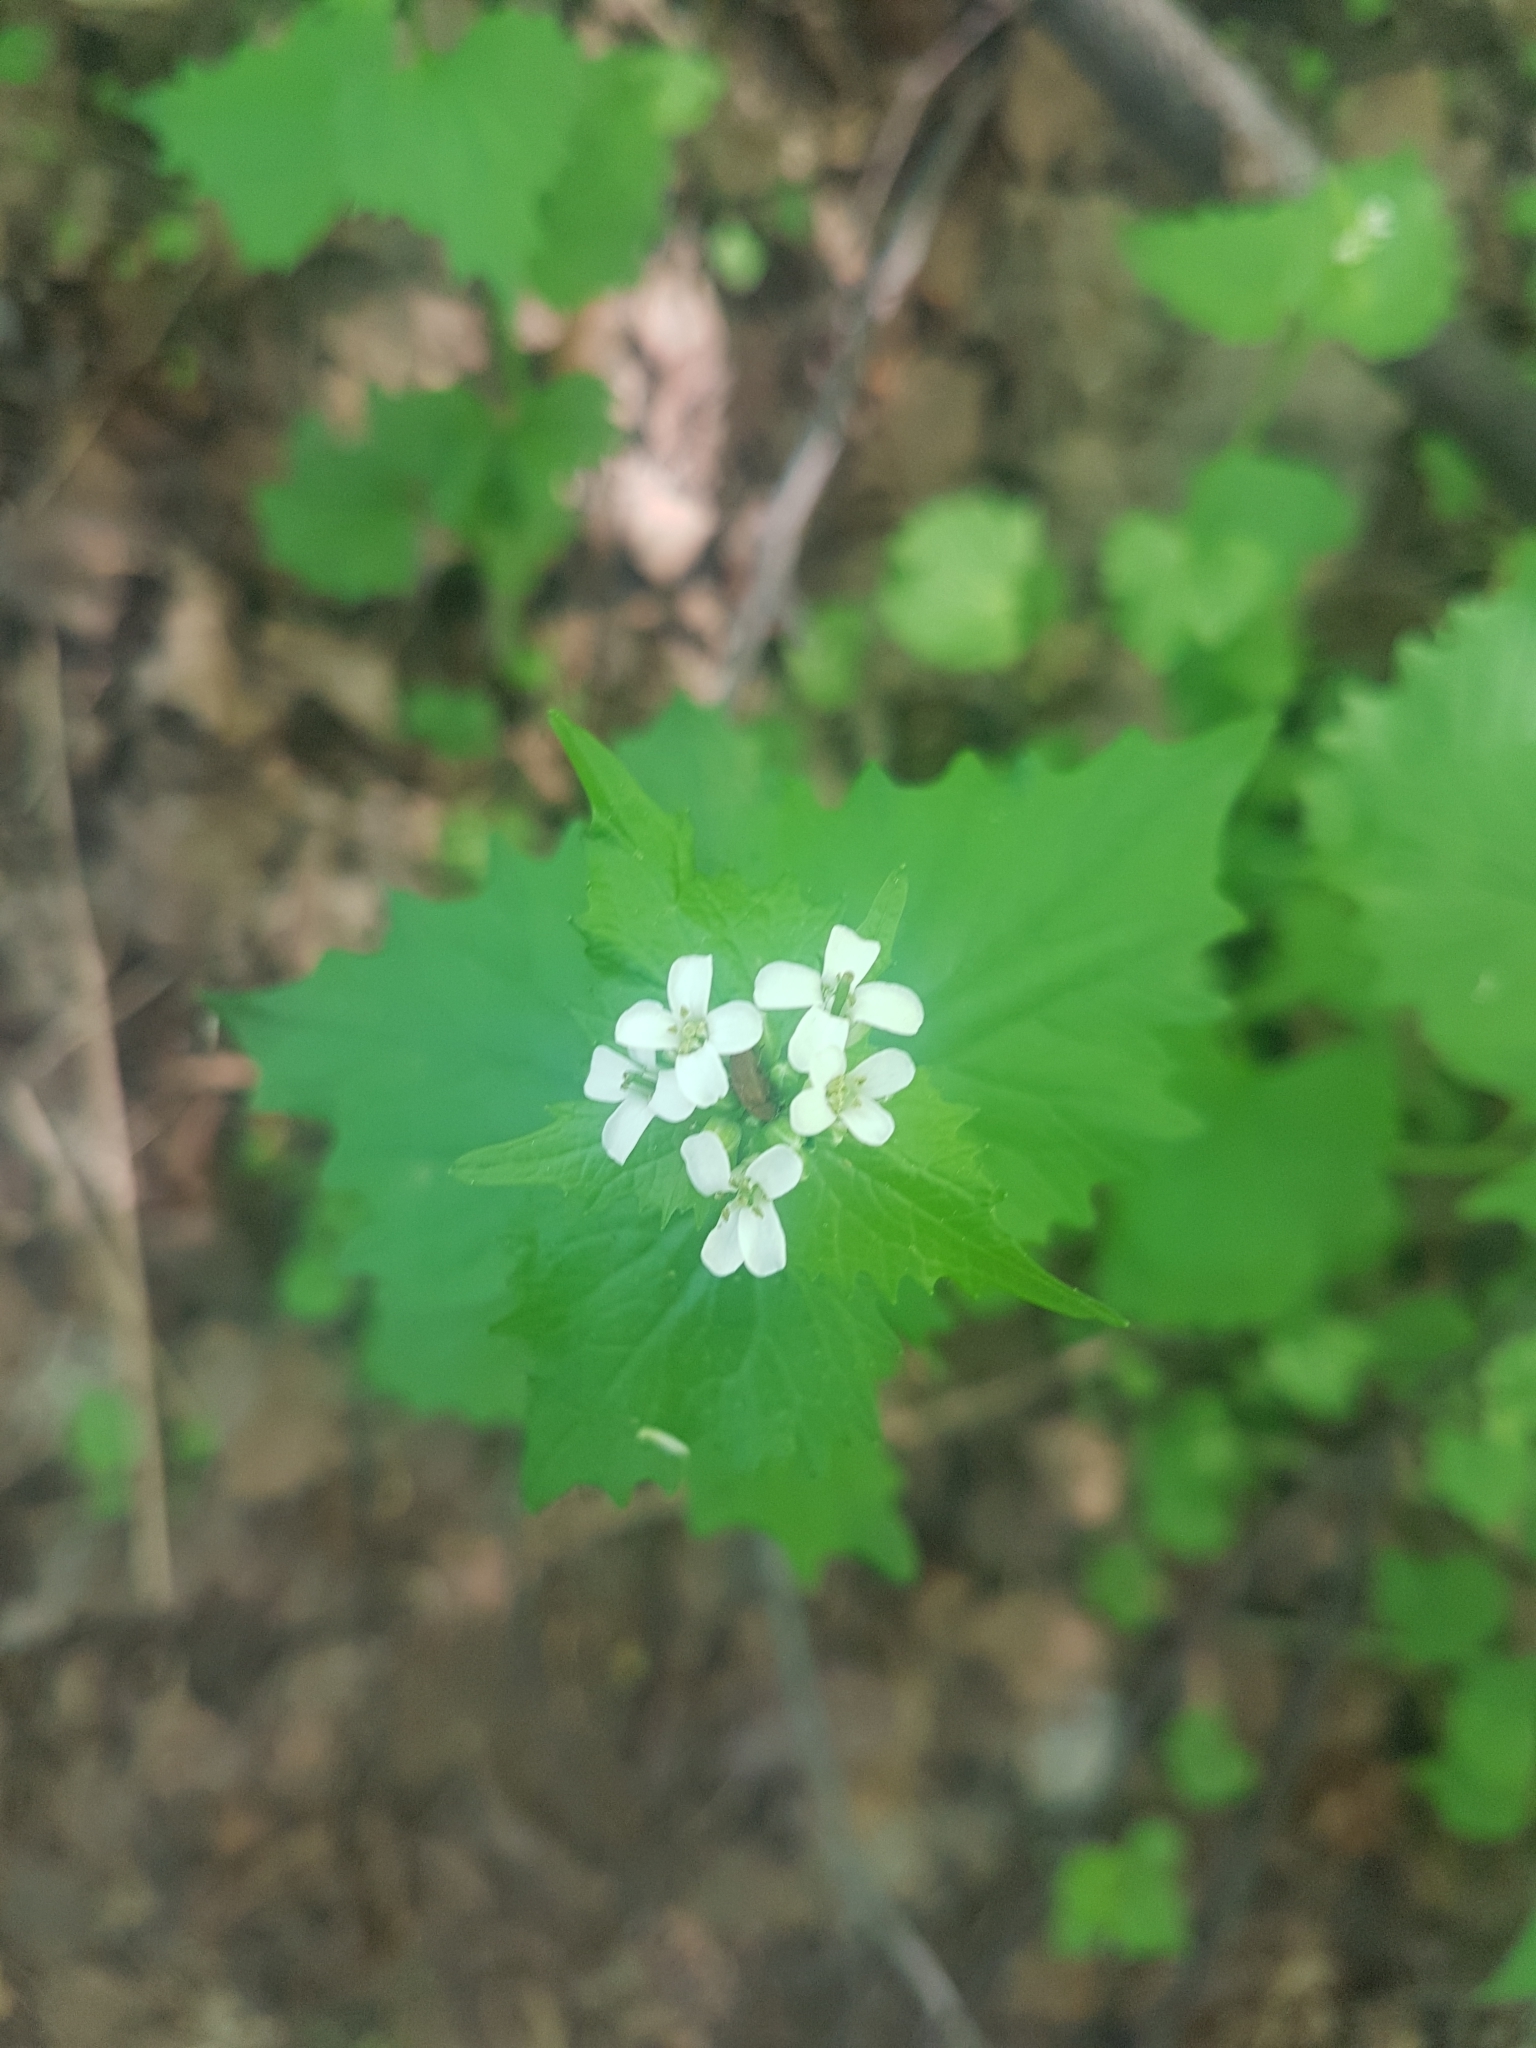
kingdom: Plantae
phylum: Tracheophyta
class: Magnoliopsida
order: Brassicales
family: Brassicaceae
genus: Alliaria
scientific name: Alliaria petiolata
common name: Garlic mustard
